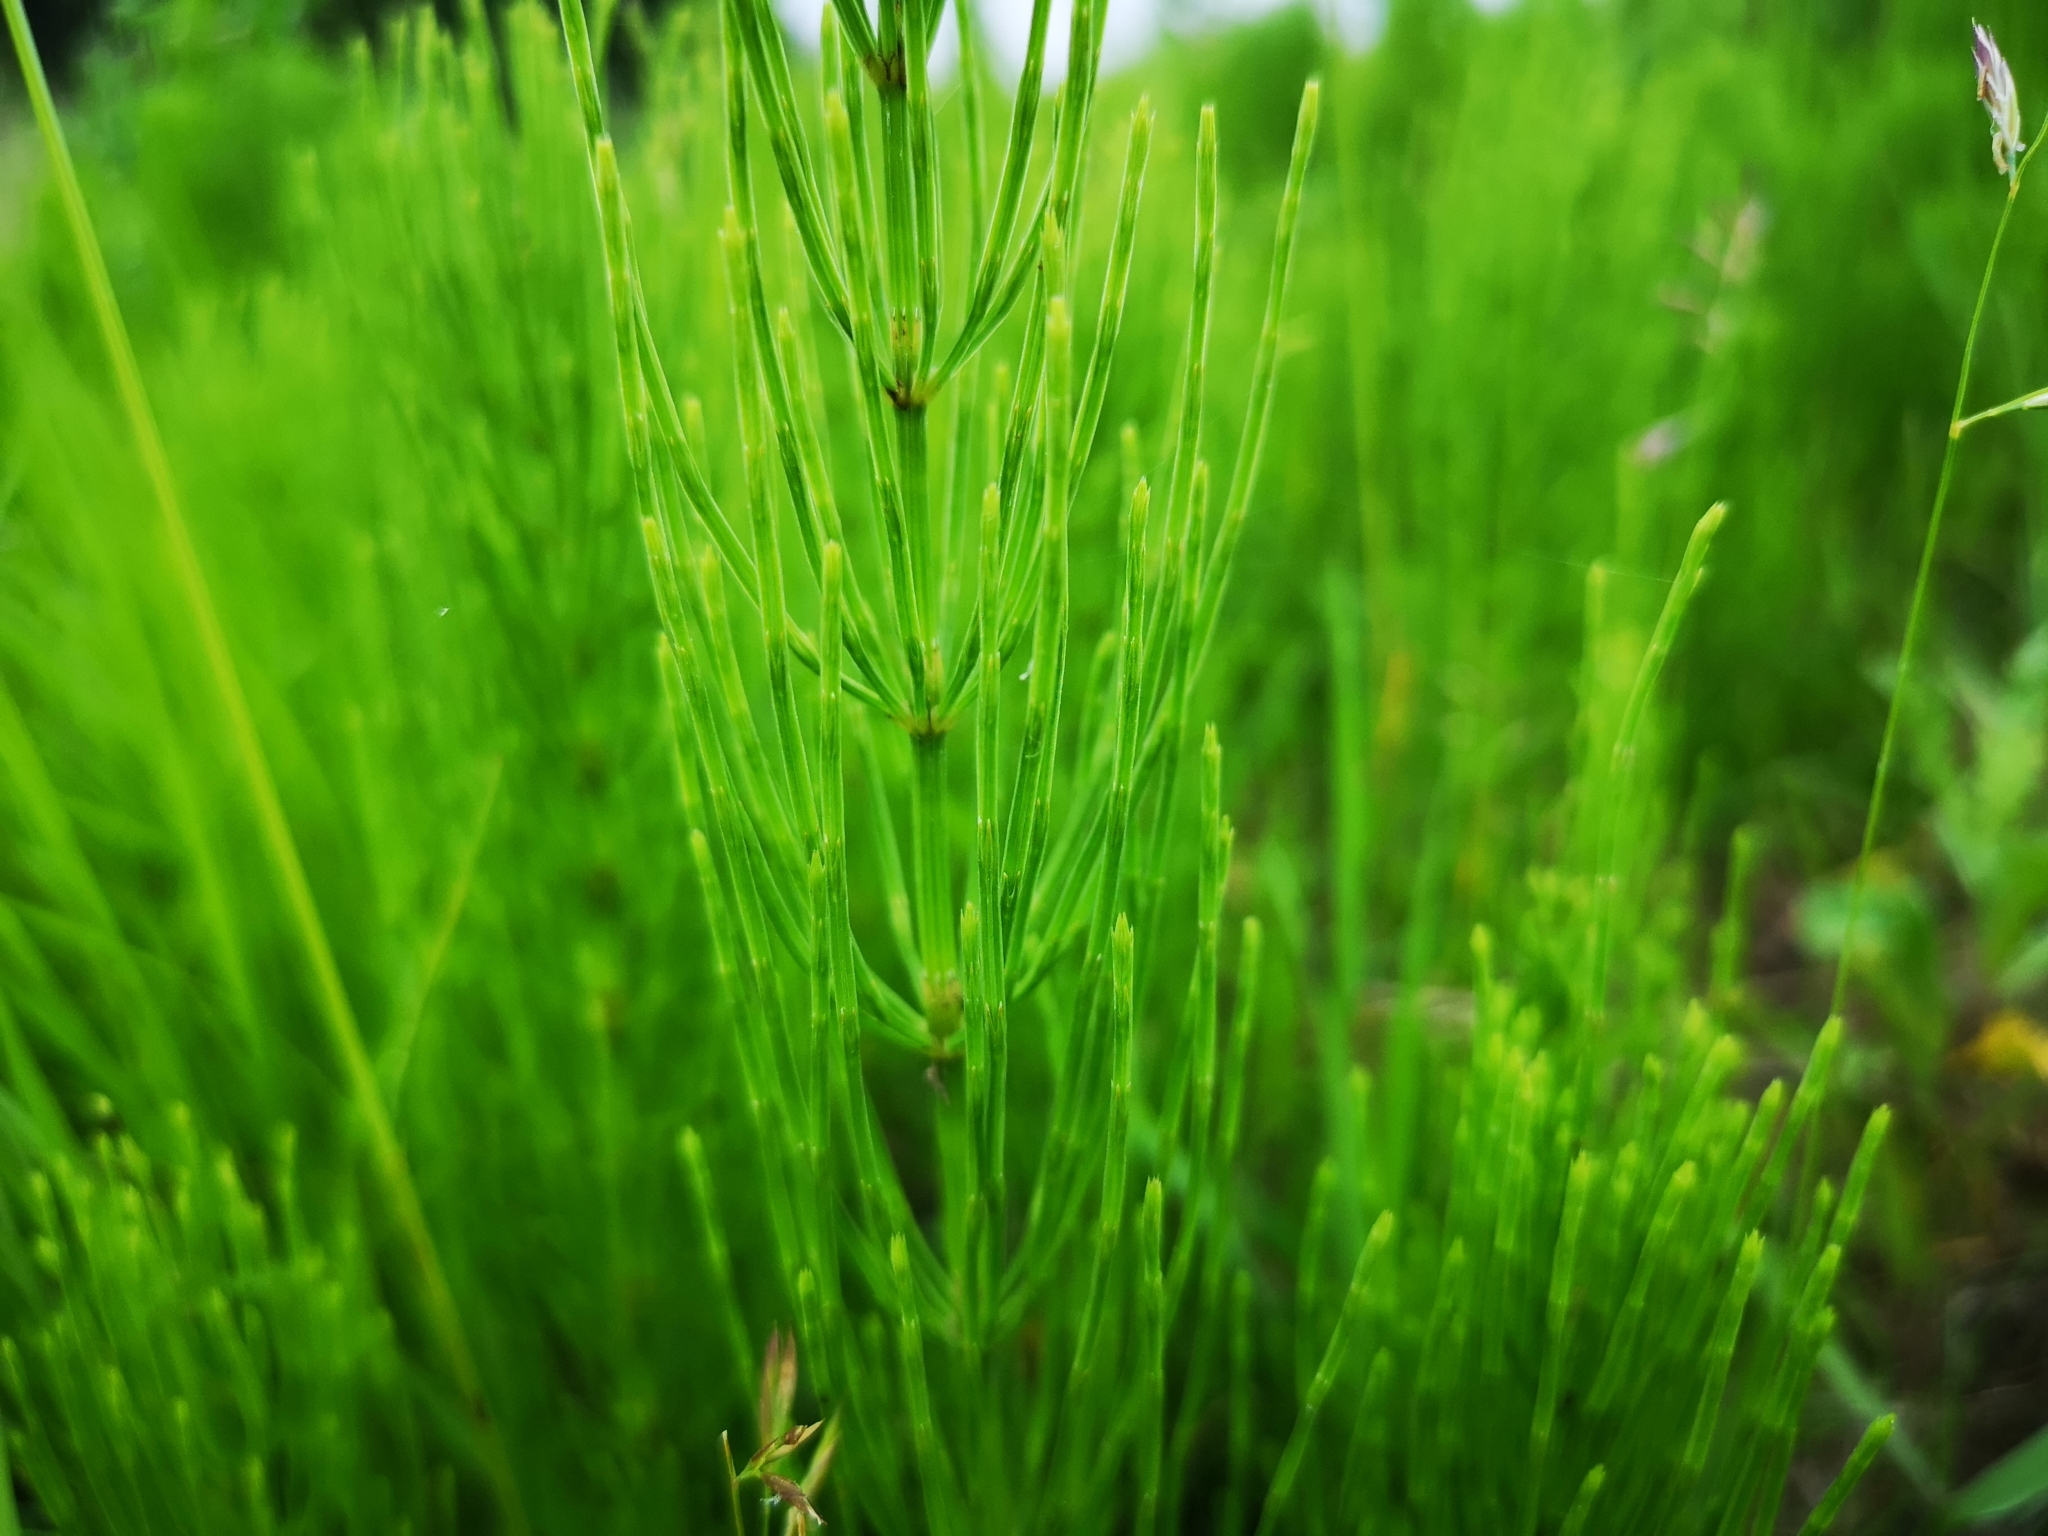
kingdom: Plantae
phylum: Tracheophyta
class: Polypodiopsida
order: Equisetales
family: Equisetaceae
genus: Equisetum
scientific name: Equisetum arvense
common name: Field horsetail
